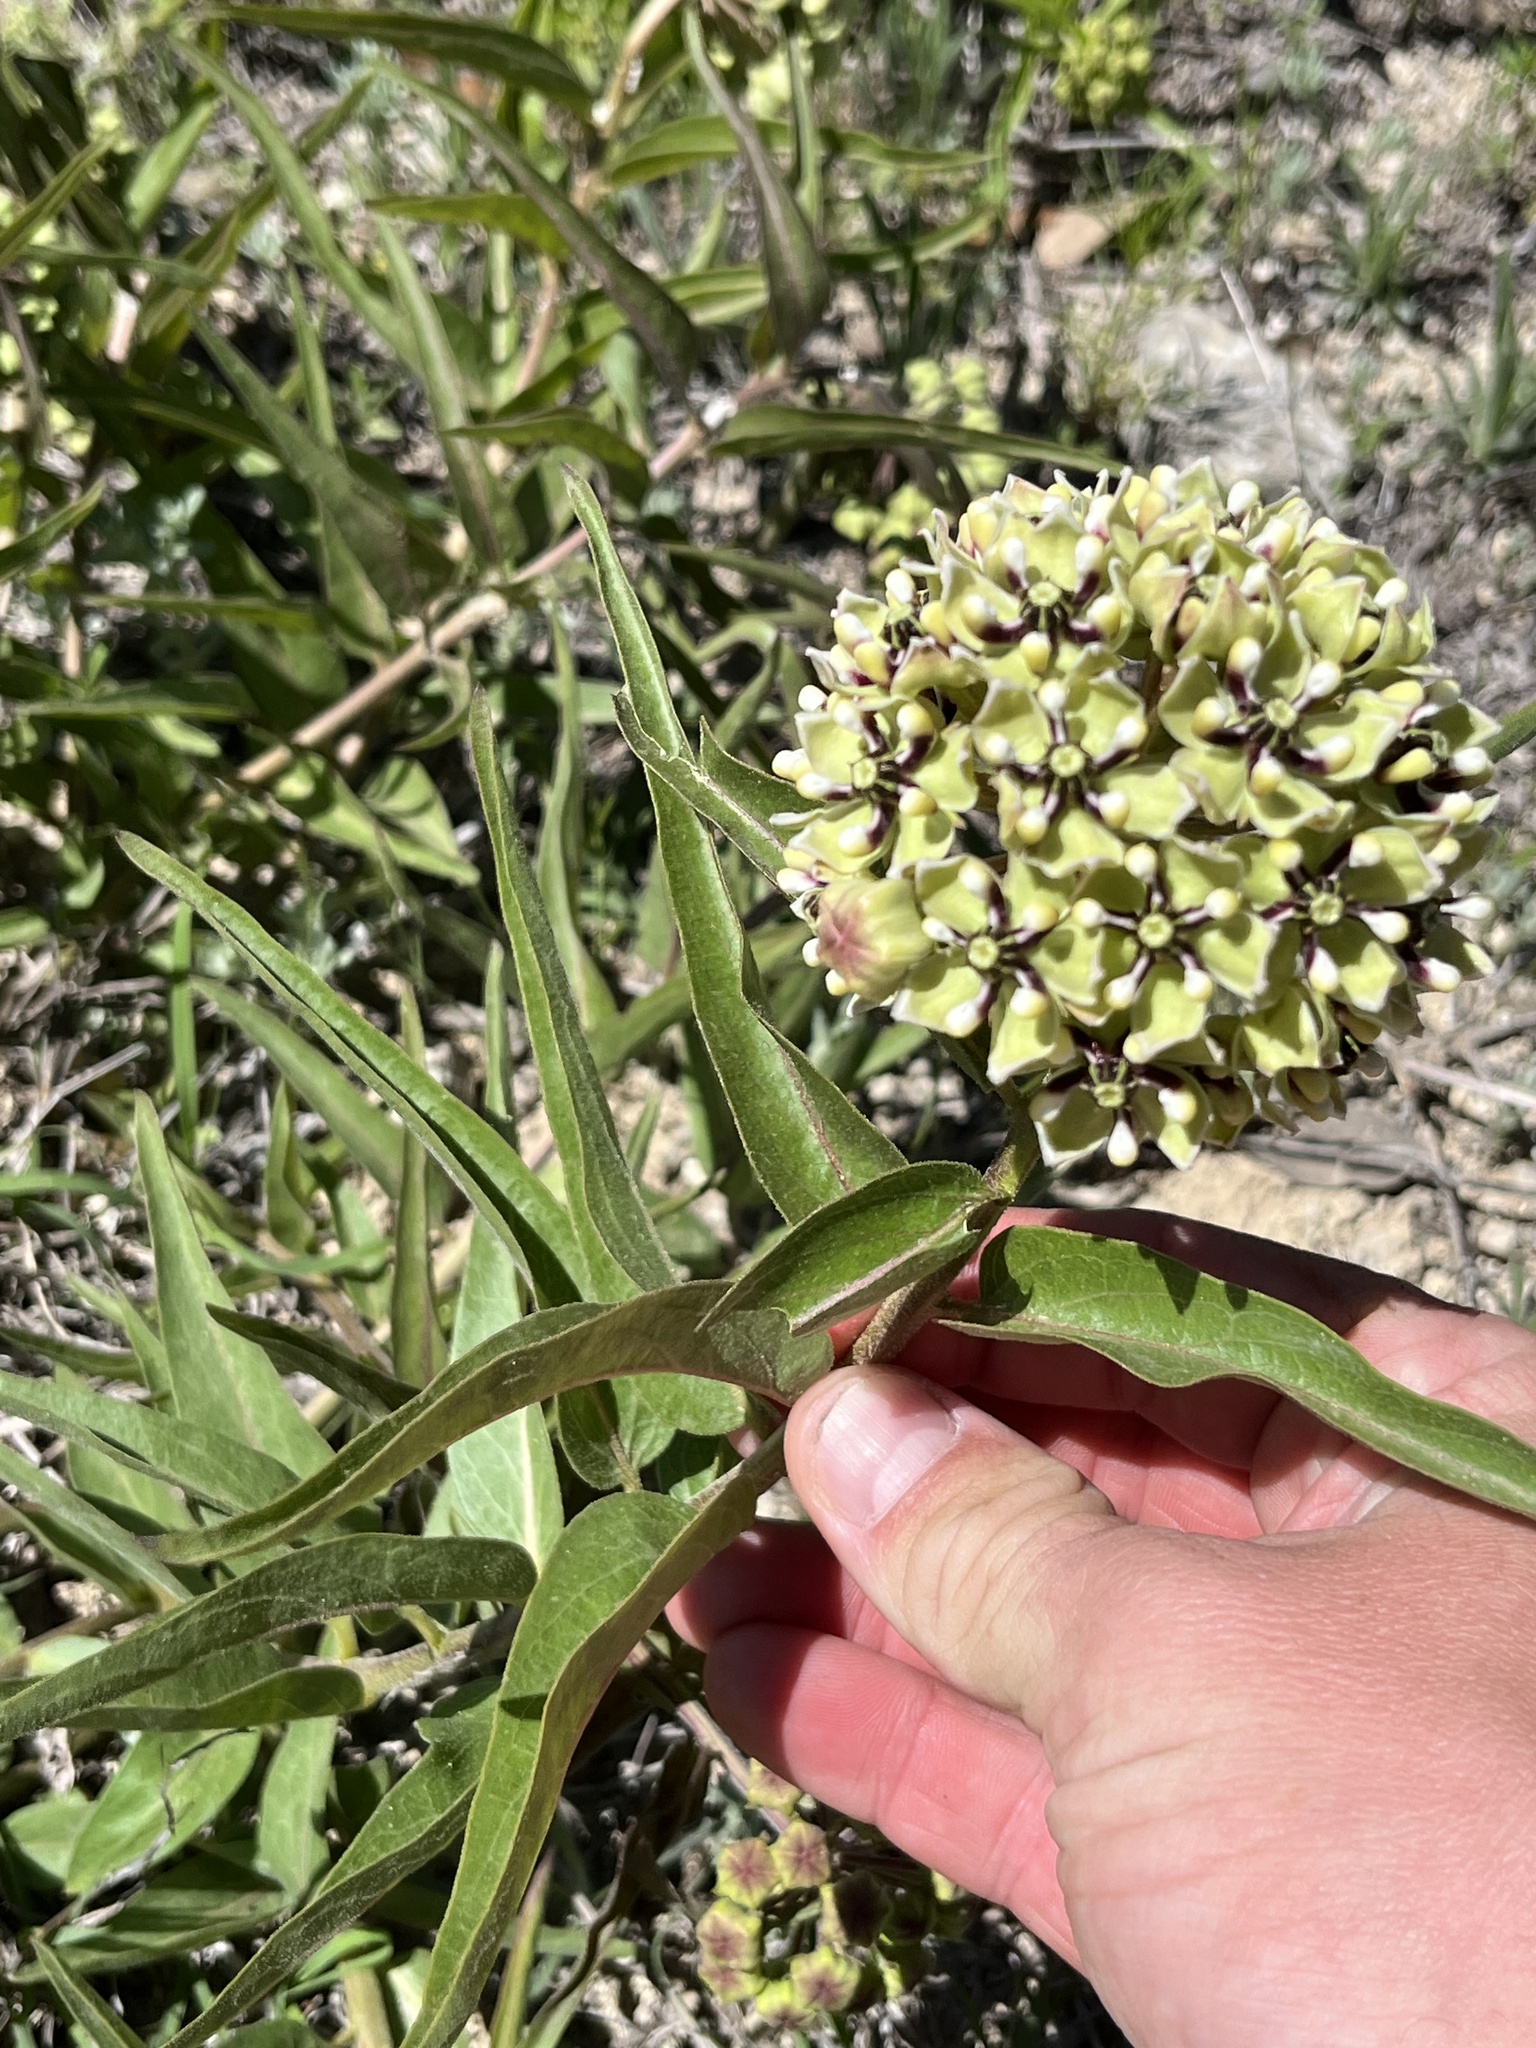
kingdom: Plantae
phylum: Tracheophyta
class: Magnoliopsida
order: Gentianales
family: Apocynaceae
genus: Asclepias
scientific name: Asclepias asperula
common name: Antelope horns
